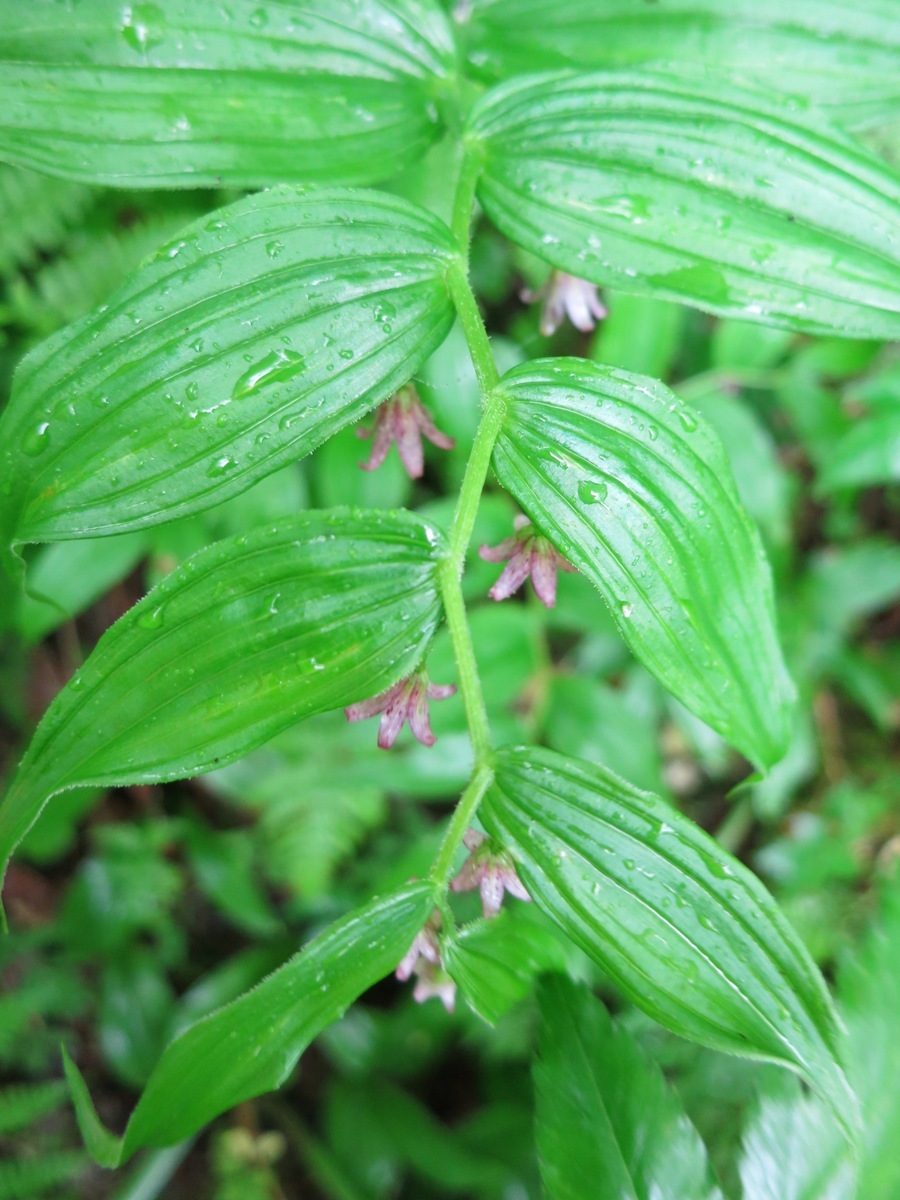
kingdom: Plantae
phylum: Tracheophyta
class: Liliopsida
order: Liliales
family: Liliaceae
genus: Streptopus
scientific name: Streptopus lanceolatus
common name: Rose mandarin
